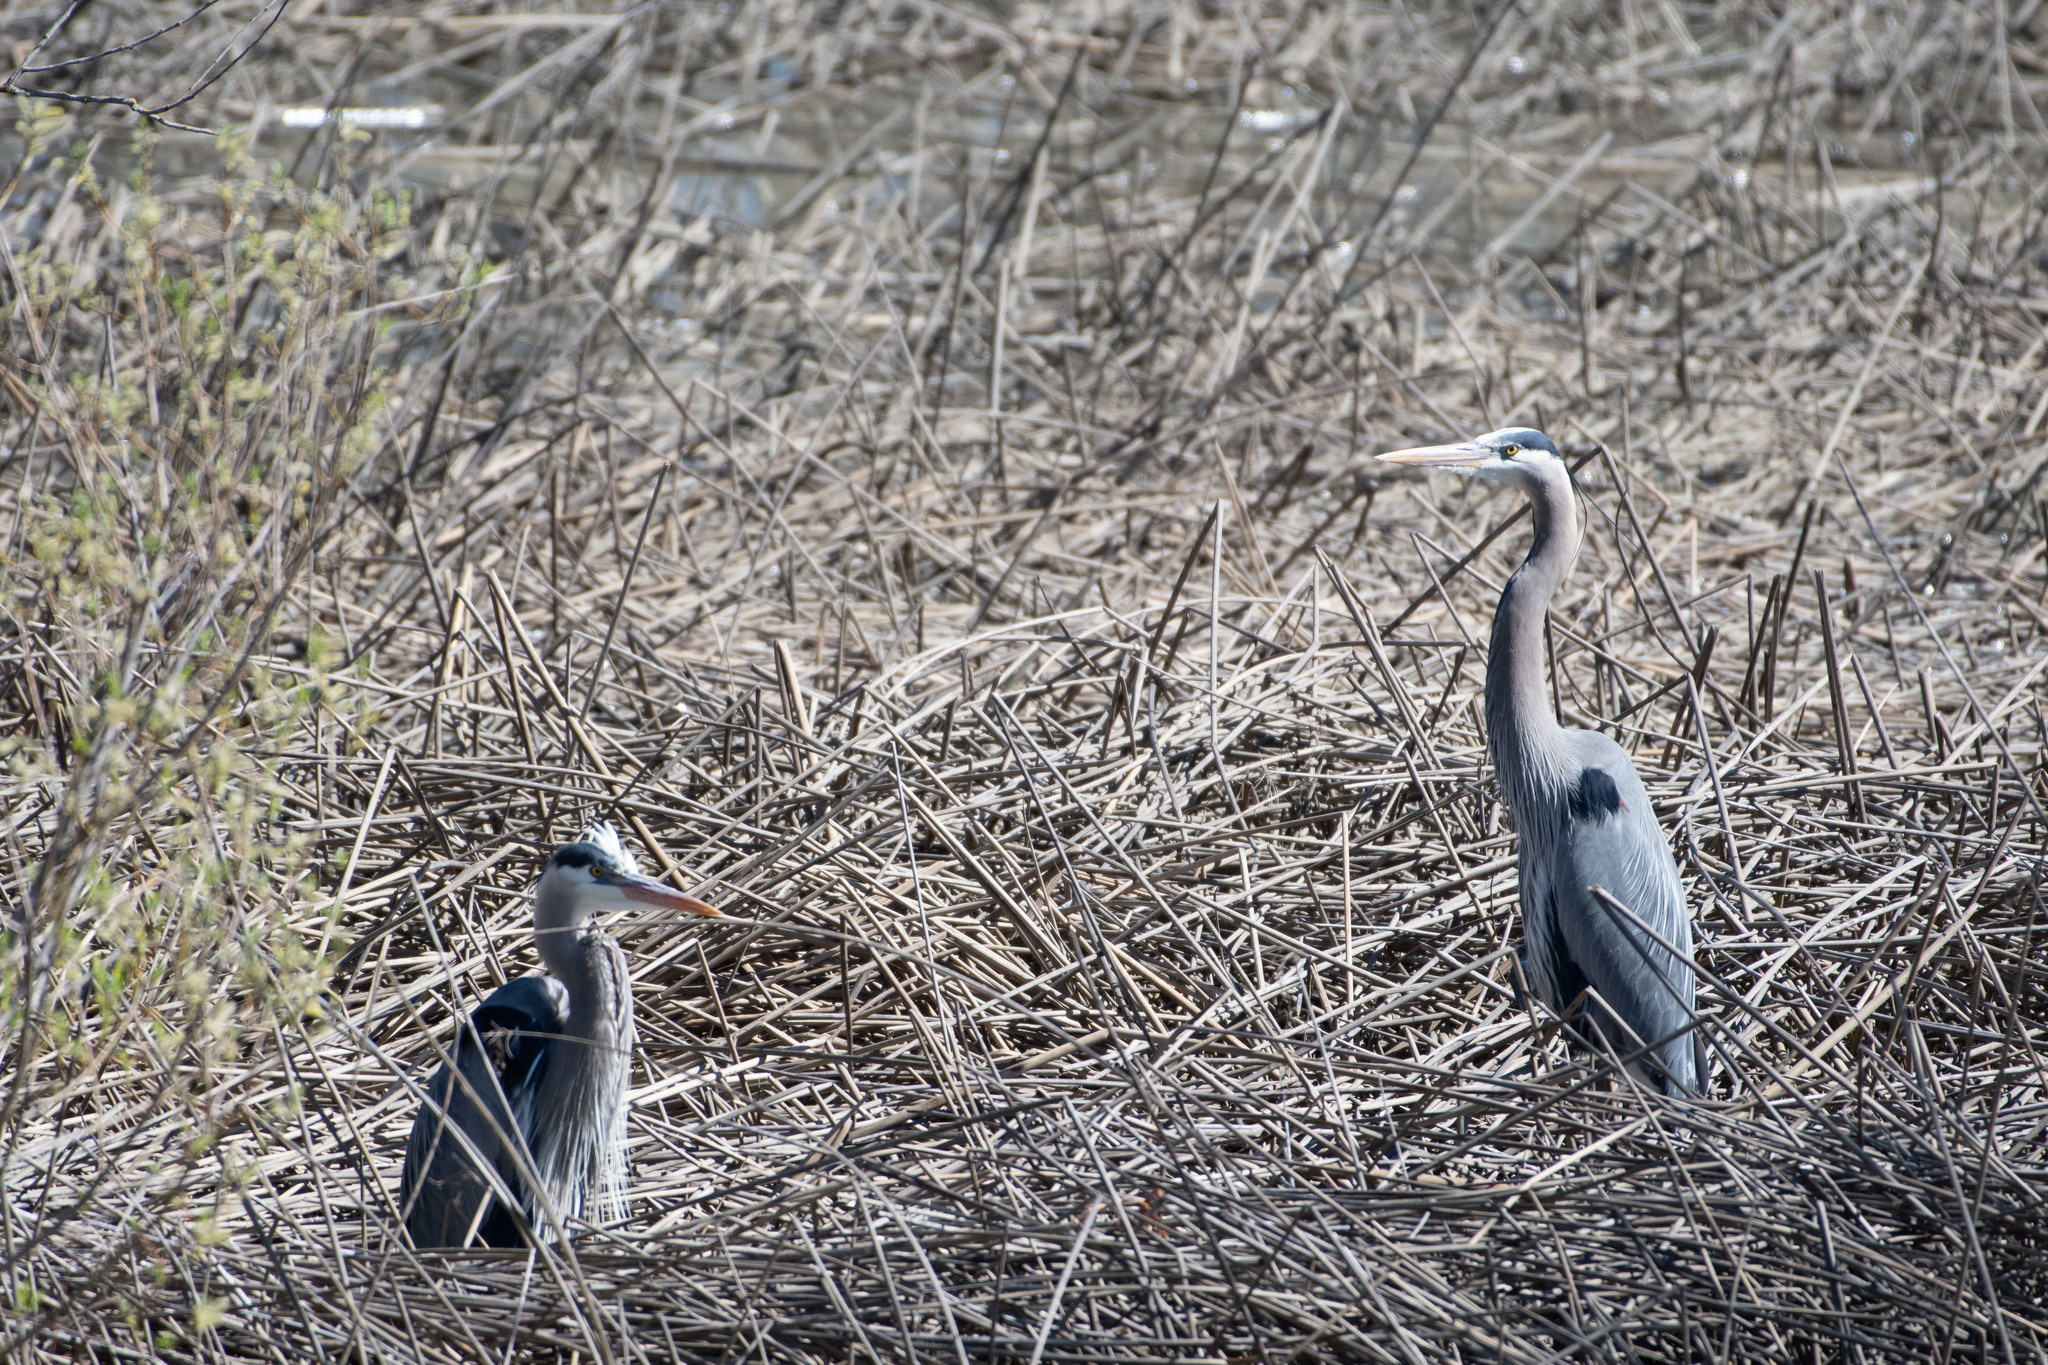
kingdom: Animalia
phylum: Chordata
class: Aves
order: Pelecaniformes
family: Ardeidae
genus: Ardea
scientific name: Ardea herodias
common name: Great blue heron
